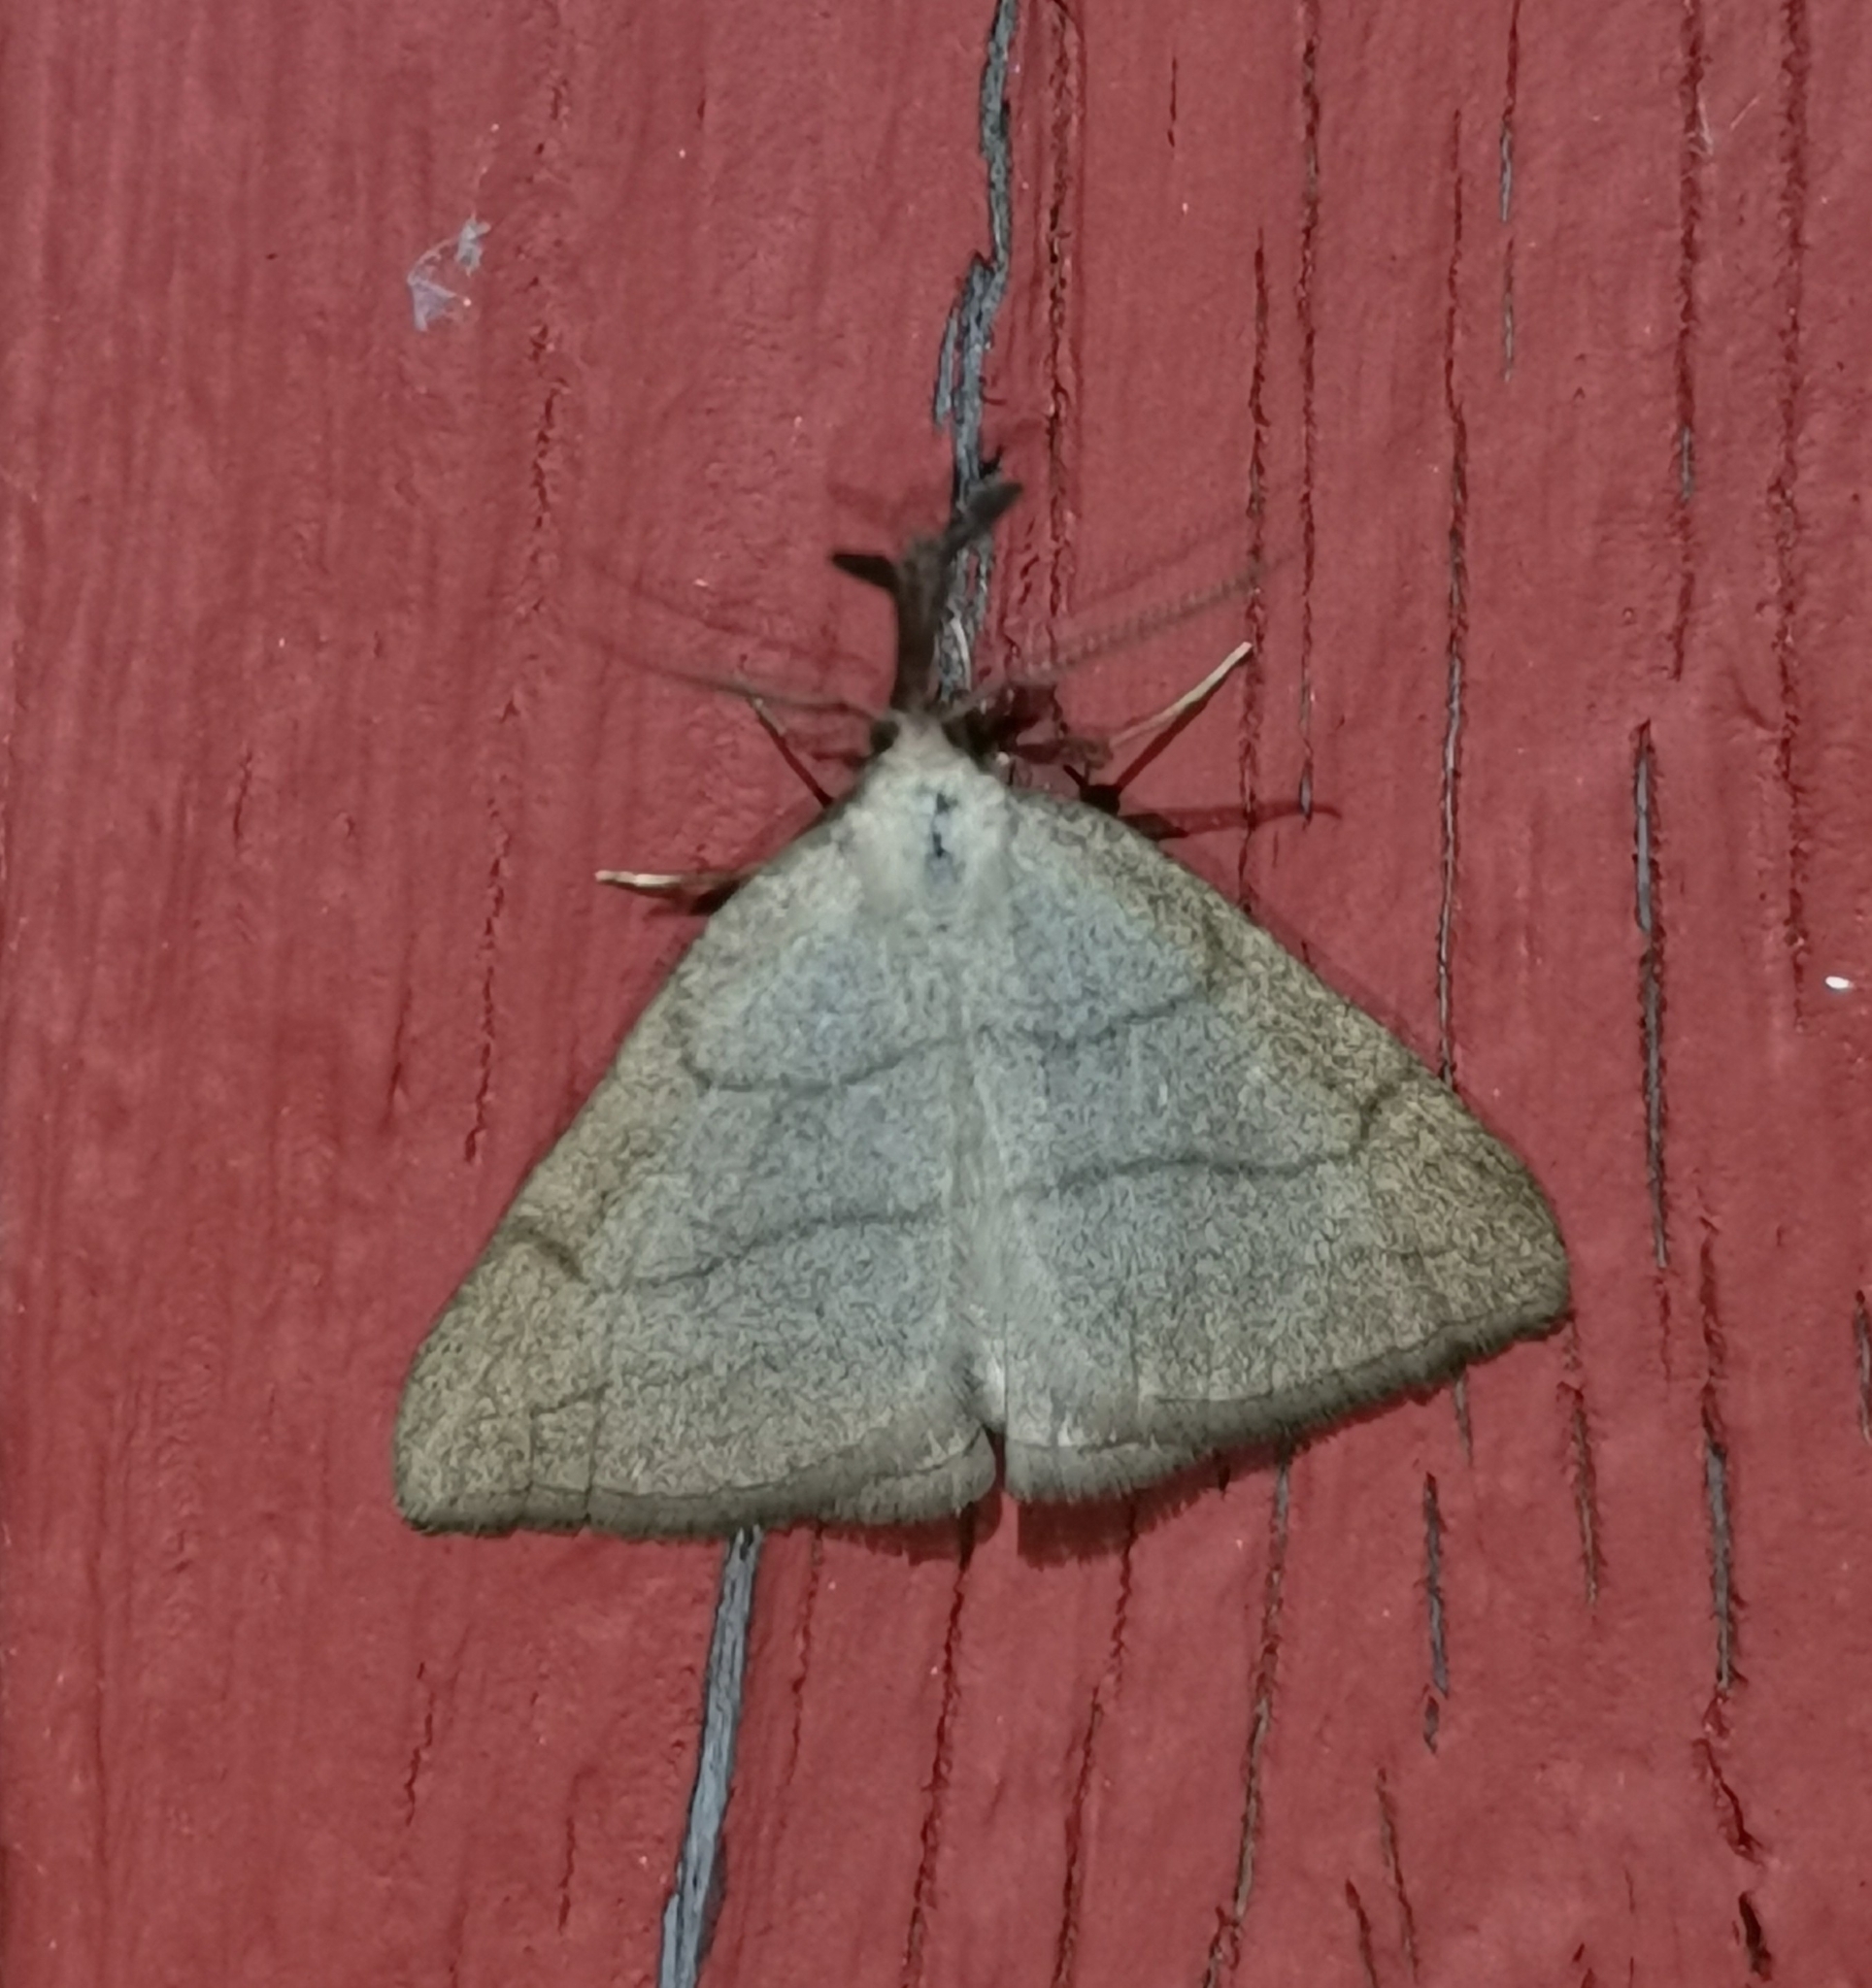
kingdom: Animalia
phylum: Arthropoda
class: Insecta
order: Lepidoptera
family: Erebidae
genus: Polypogon
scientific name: Polypogon tentacularia
